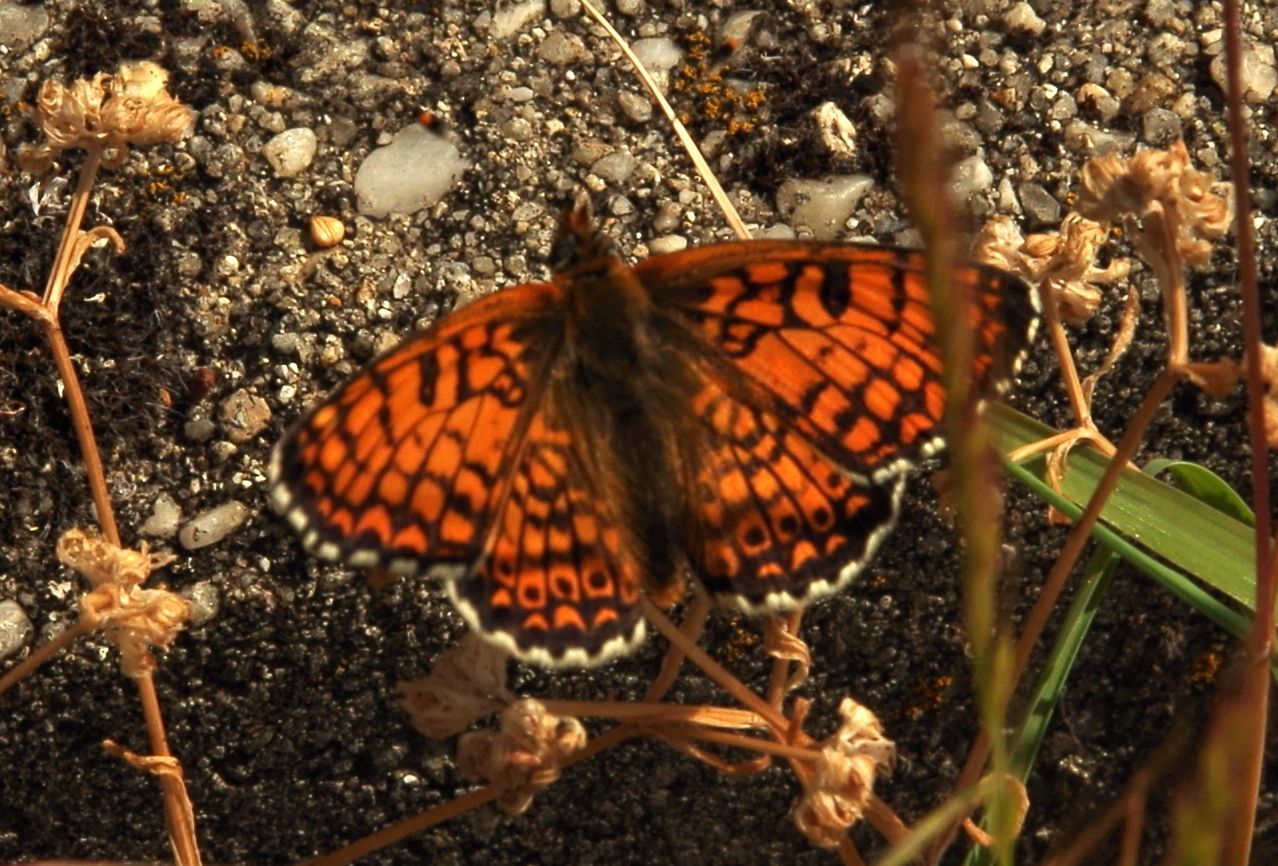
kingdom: Animalia
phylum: Arthropoda
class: Insecta
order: Lepidoptera
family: Nymphalidae
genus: Melitaea
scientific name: Melitaea cinxia
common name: Glanville fritillary
